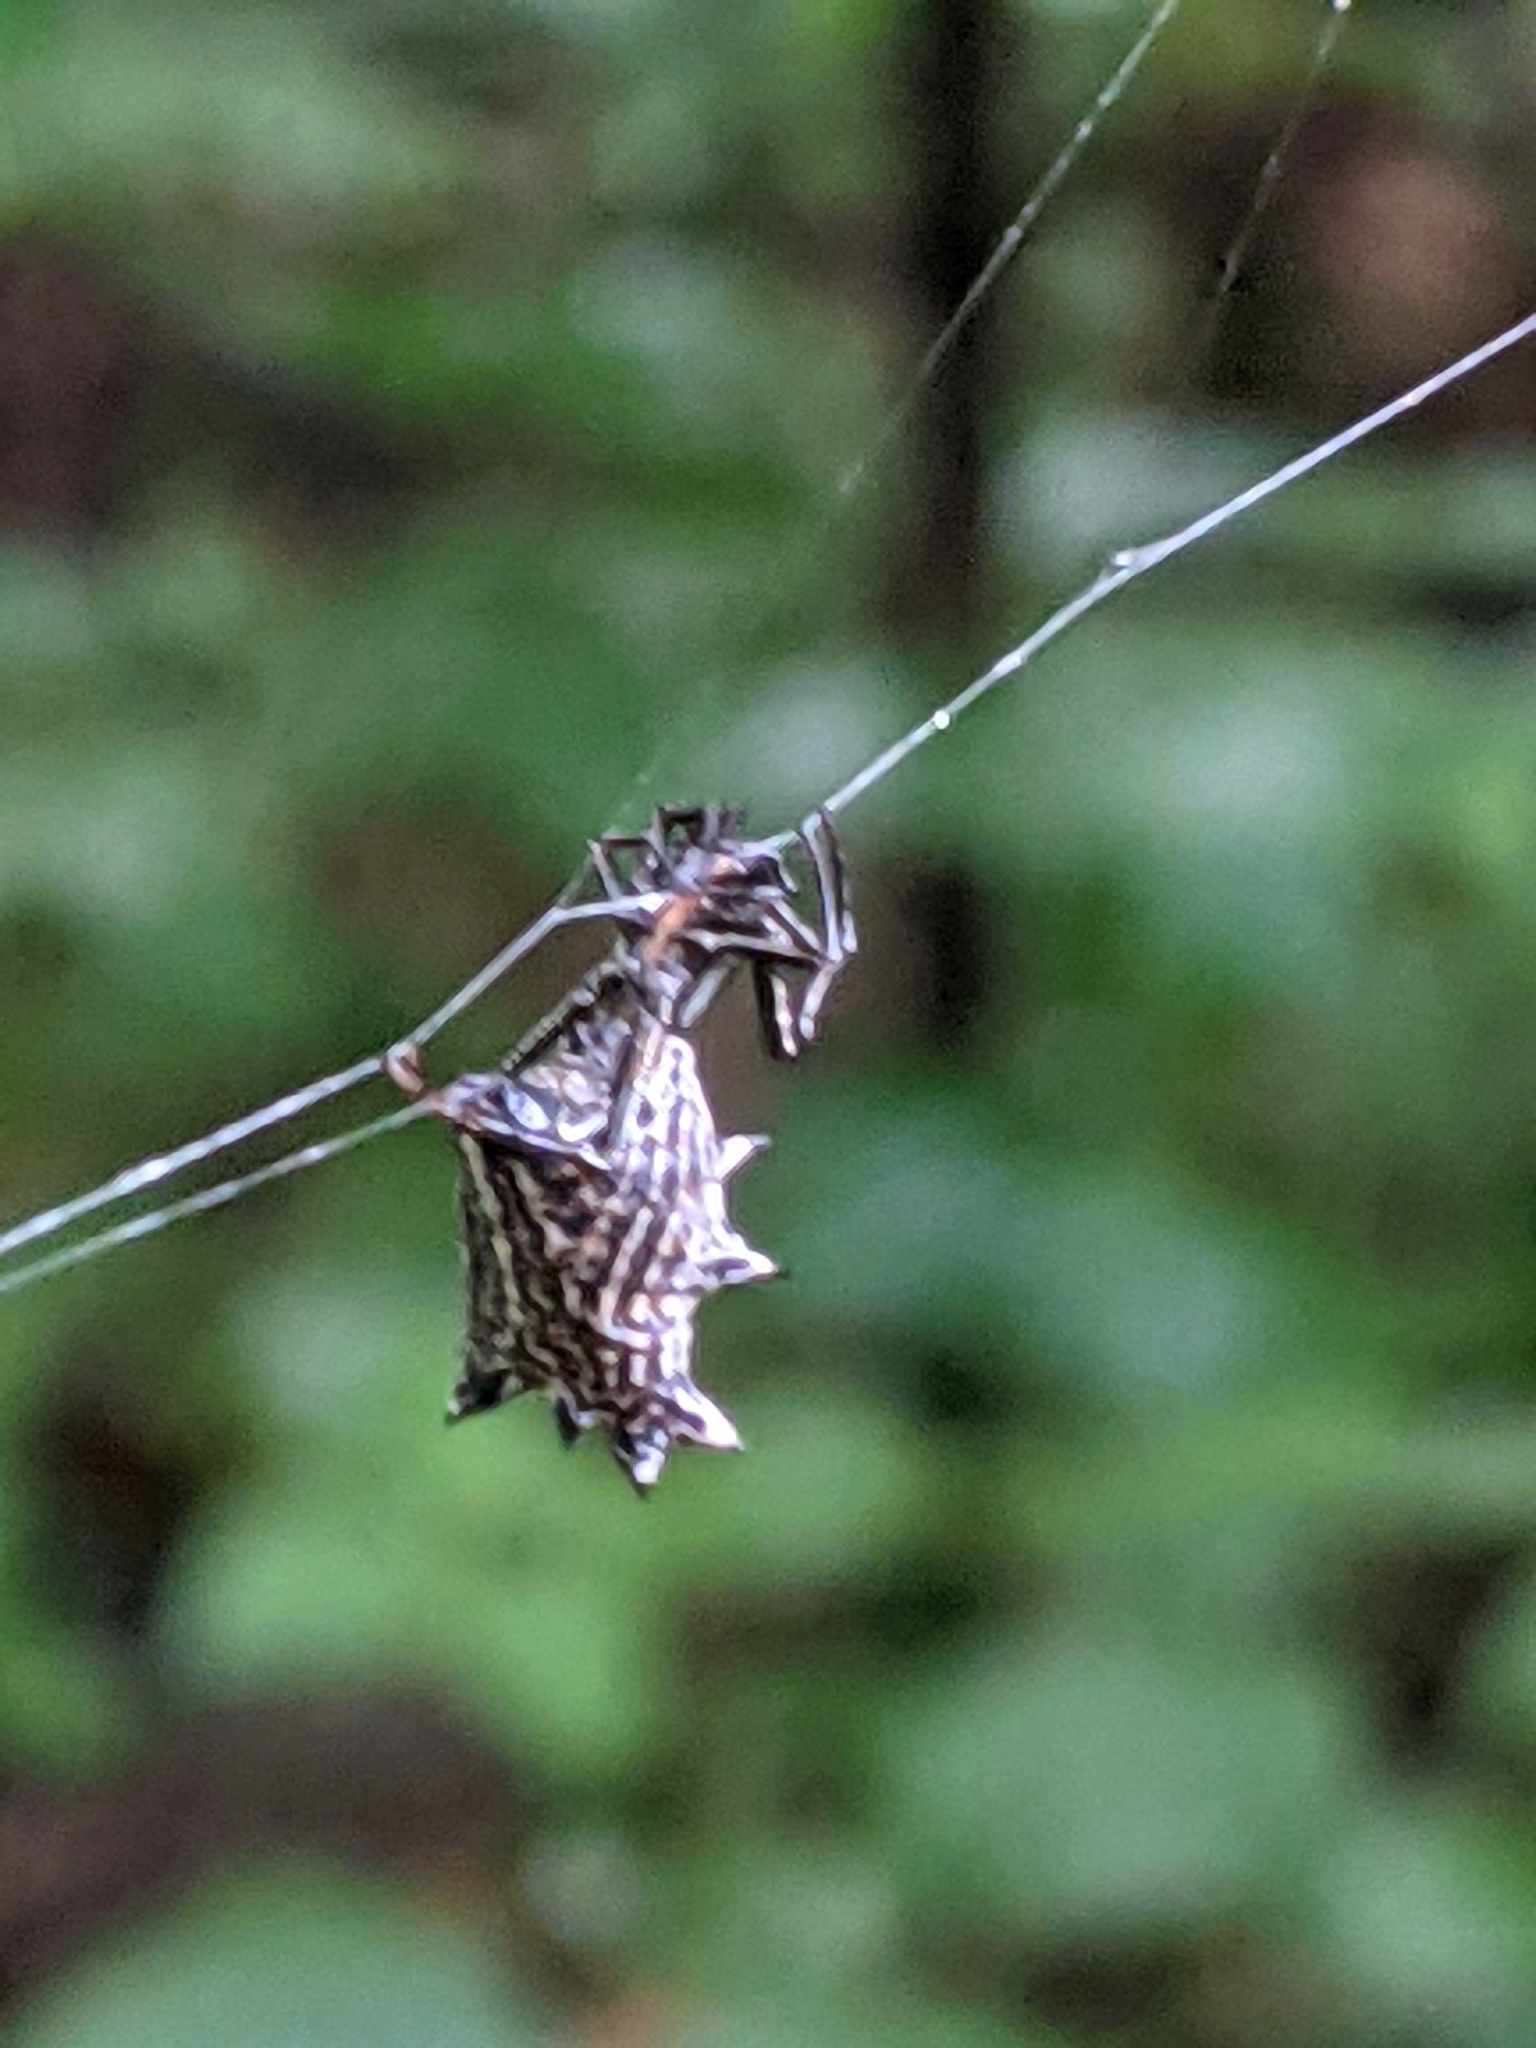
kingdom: Animalia
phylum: Arthropoda
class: Arachnida
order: Araneae
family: Araneidae
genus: Micrathena
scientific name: Micrathena gracilis
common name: Orb weavers
